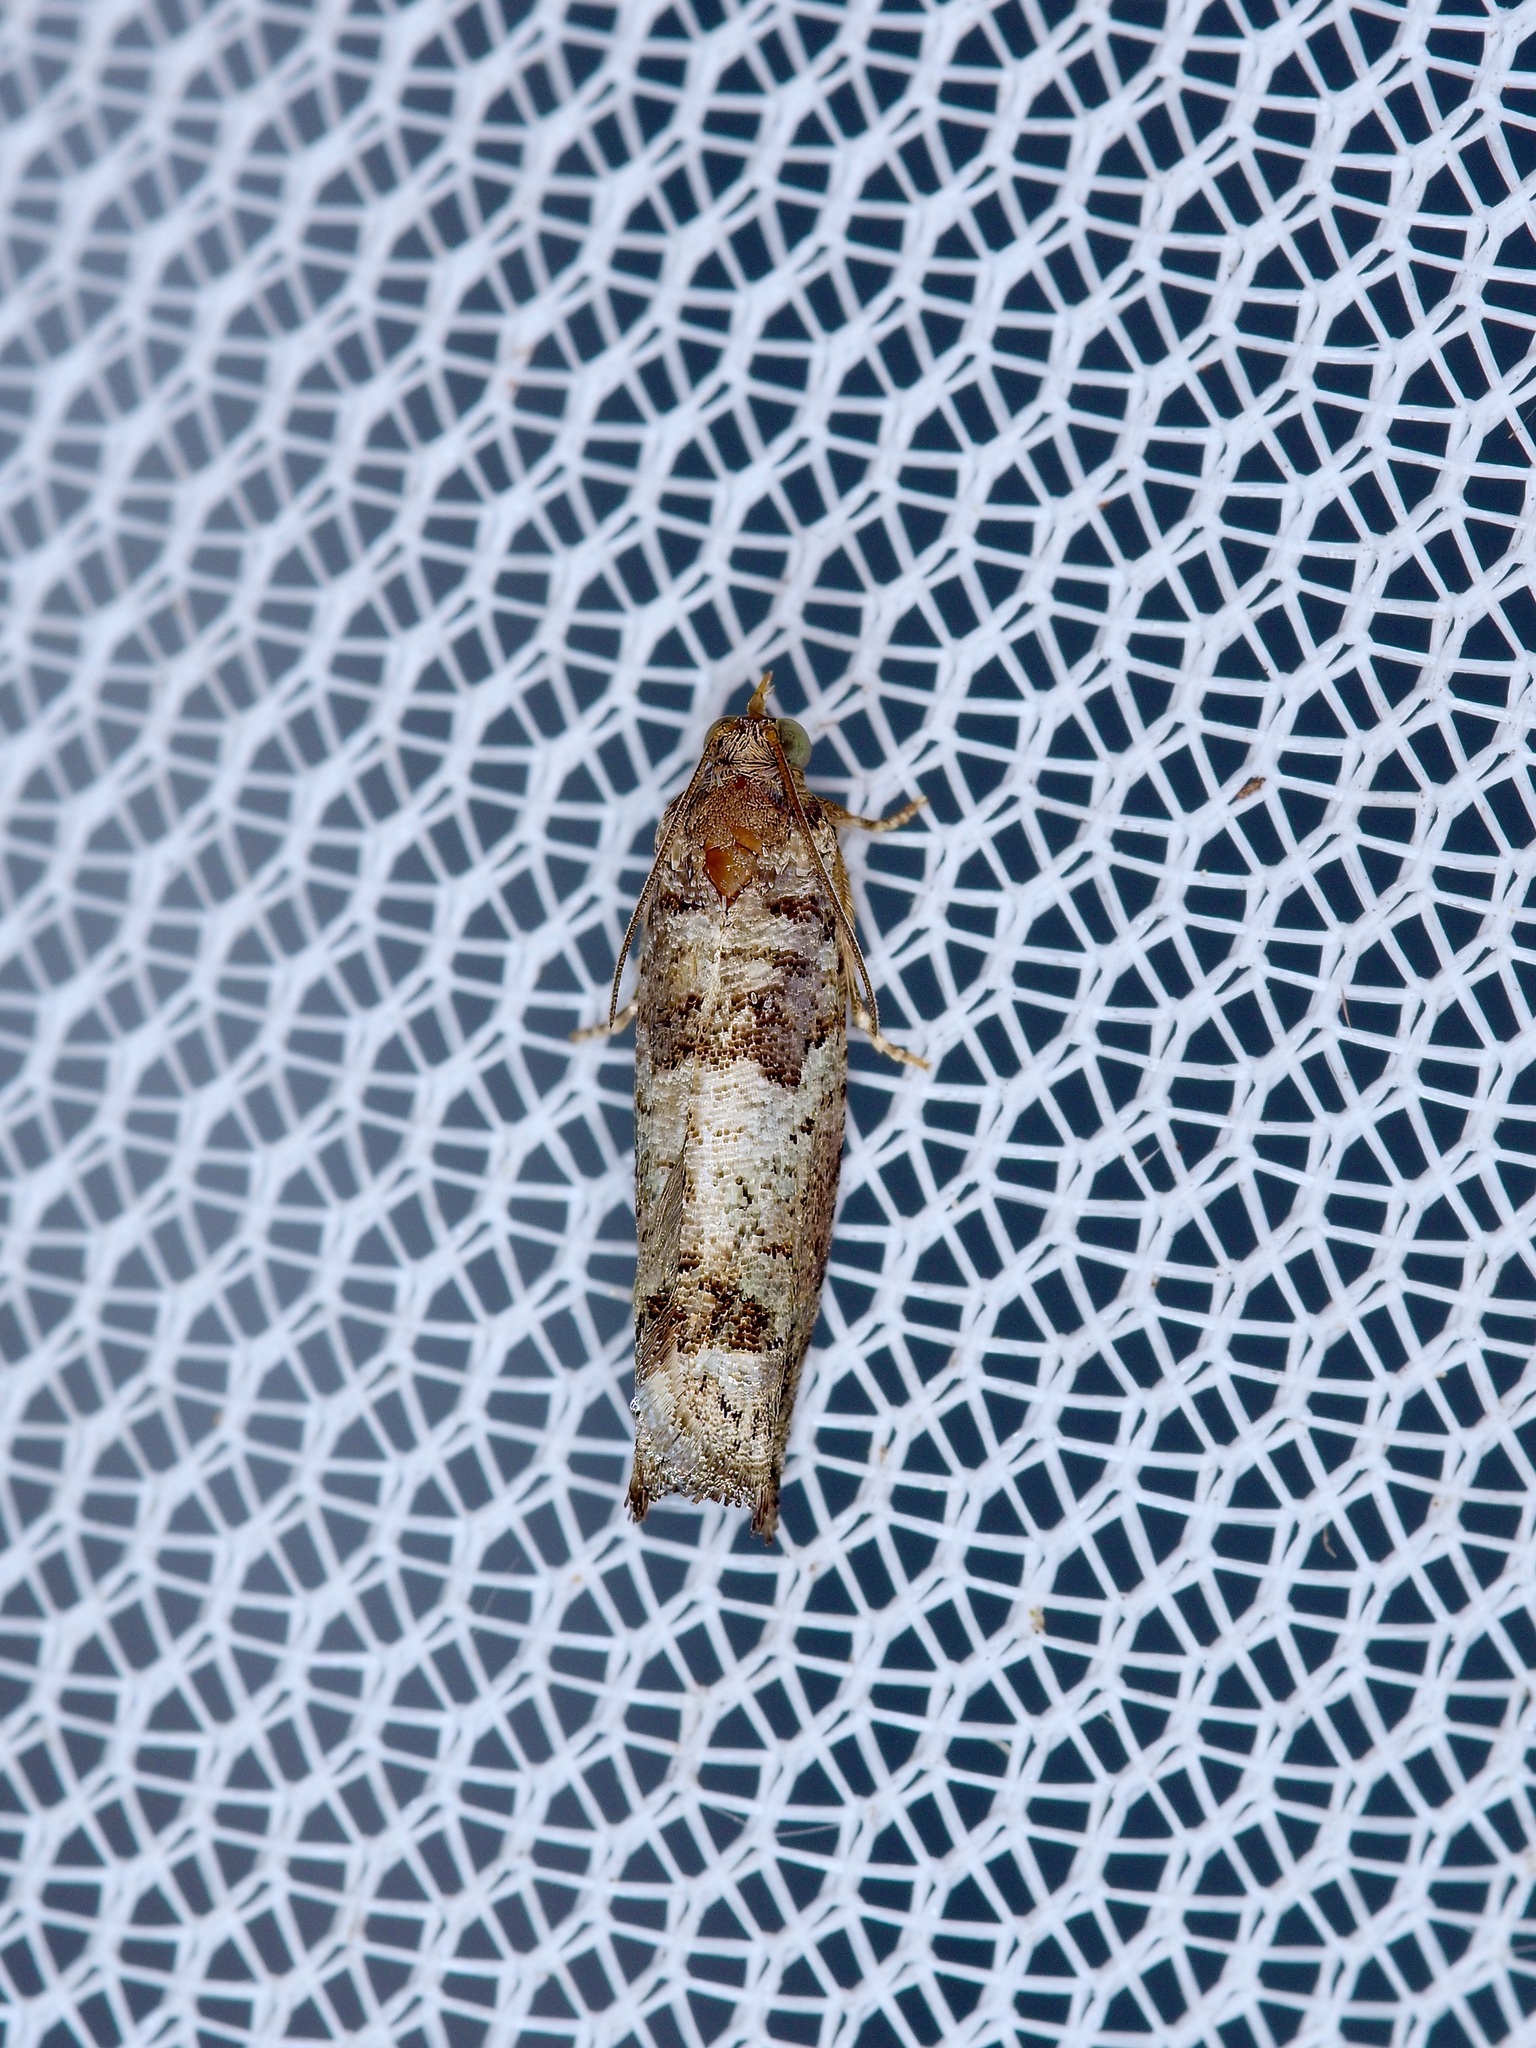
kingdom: Animalia
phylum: Arthropoda
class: Insecta
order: Lepidoptera
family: Tortricidae
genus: Pseudexentera
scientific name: Pseudexentera knudsoni
